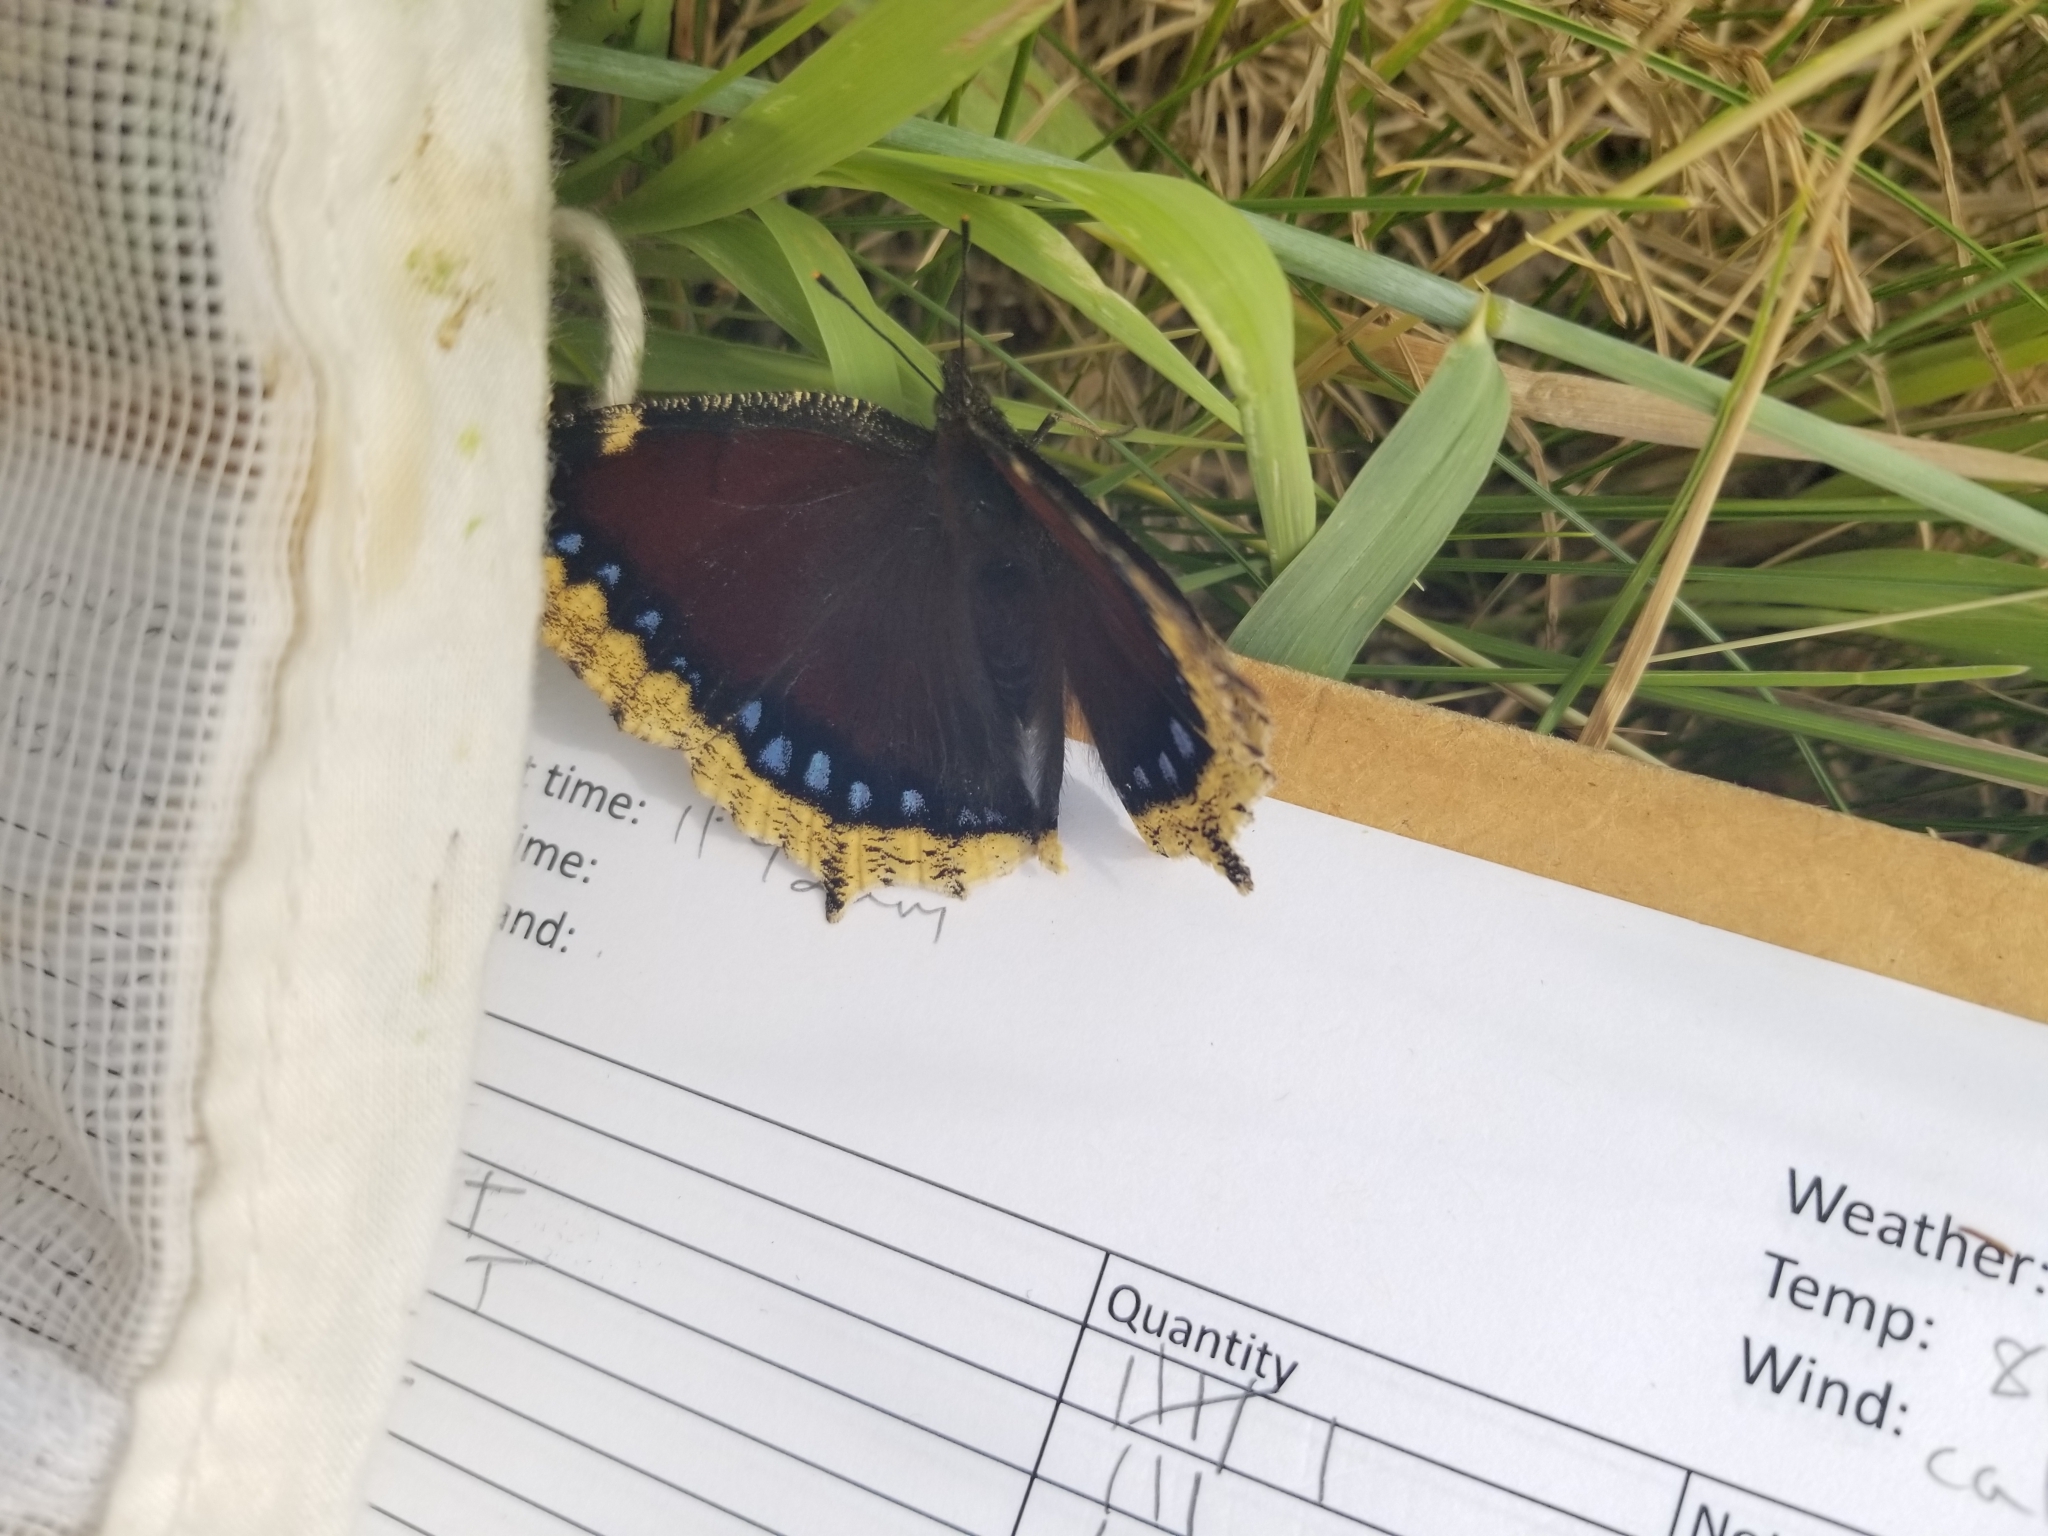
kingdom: Animalia
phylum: Arthropoda
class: Insecta
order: Lepidoptera
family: Nymphalidae
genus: Nymphalis
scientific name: Nymphalis antiopa
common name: Camberwell beauty
